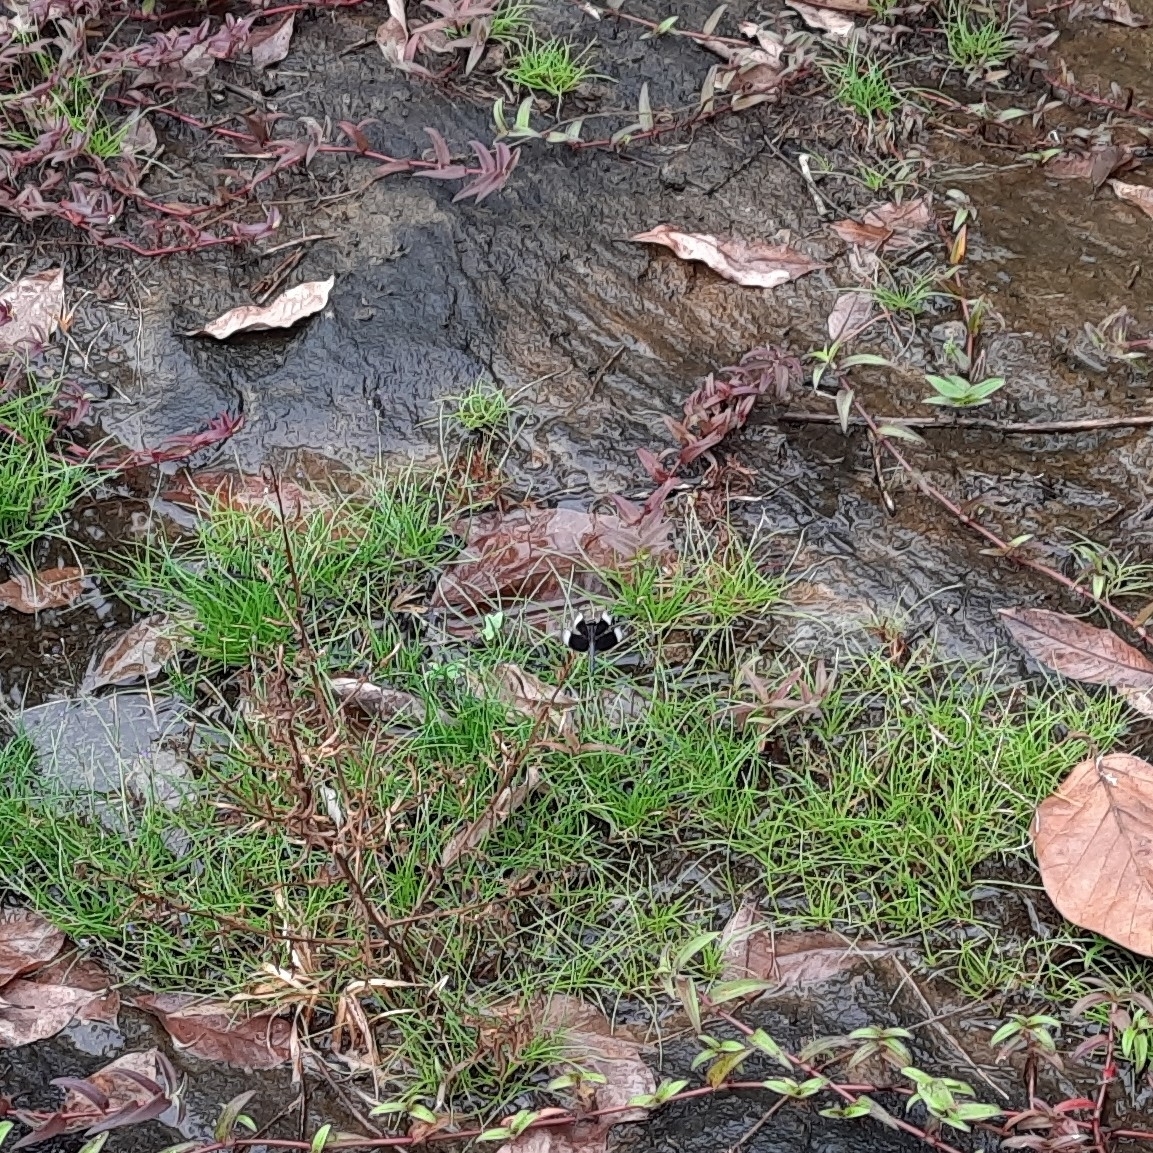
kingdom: Animalia
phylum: Arthropoda
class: Insecta
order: Odonata
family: Libellulidae
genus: Neurothemis
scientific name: Neurothemis tullia
